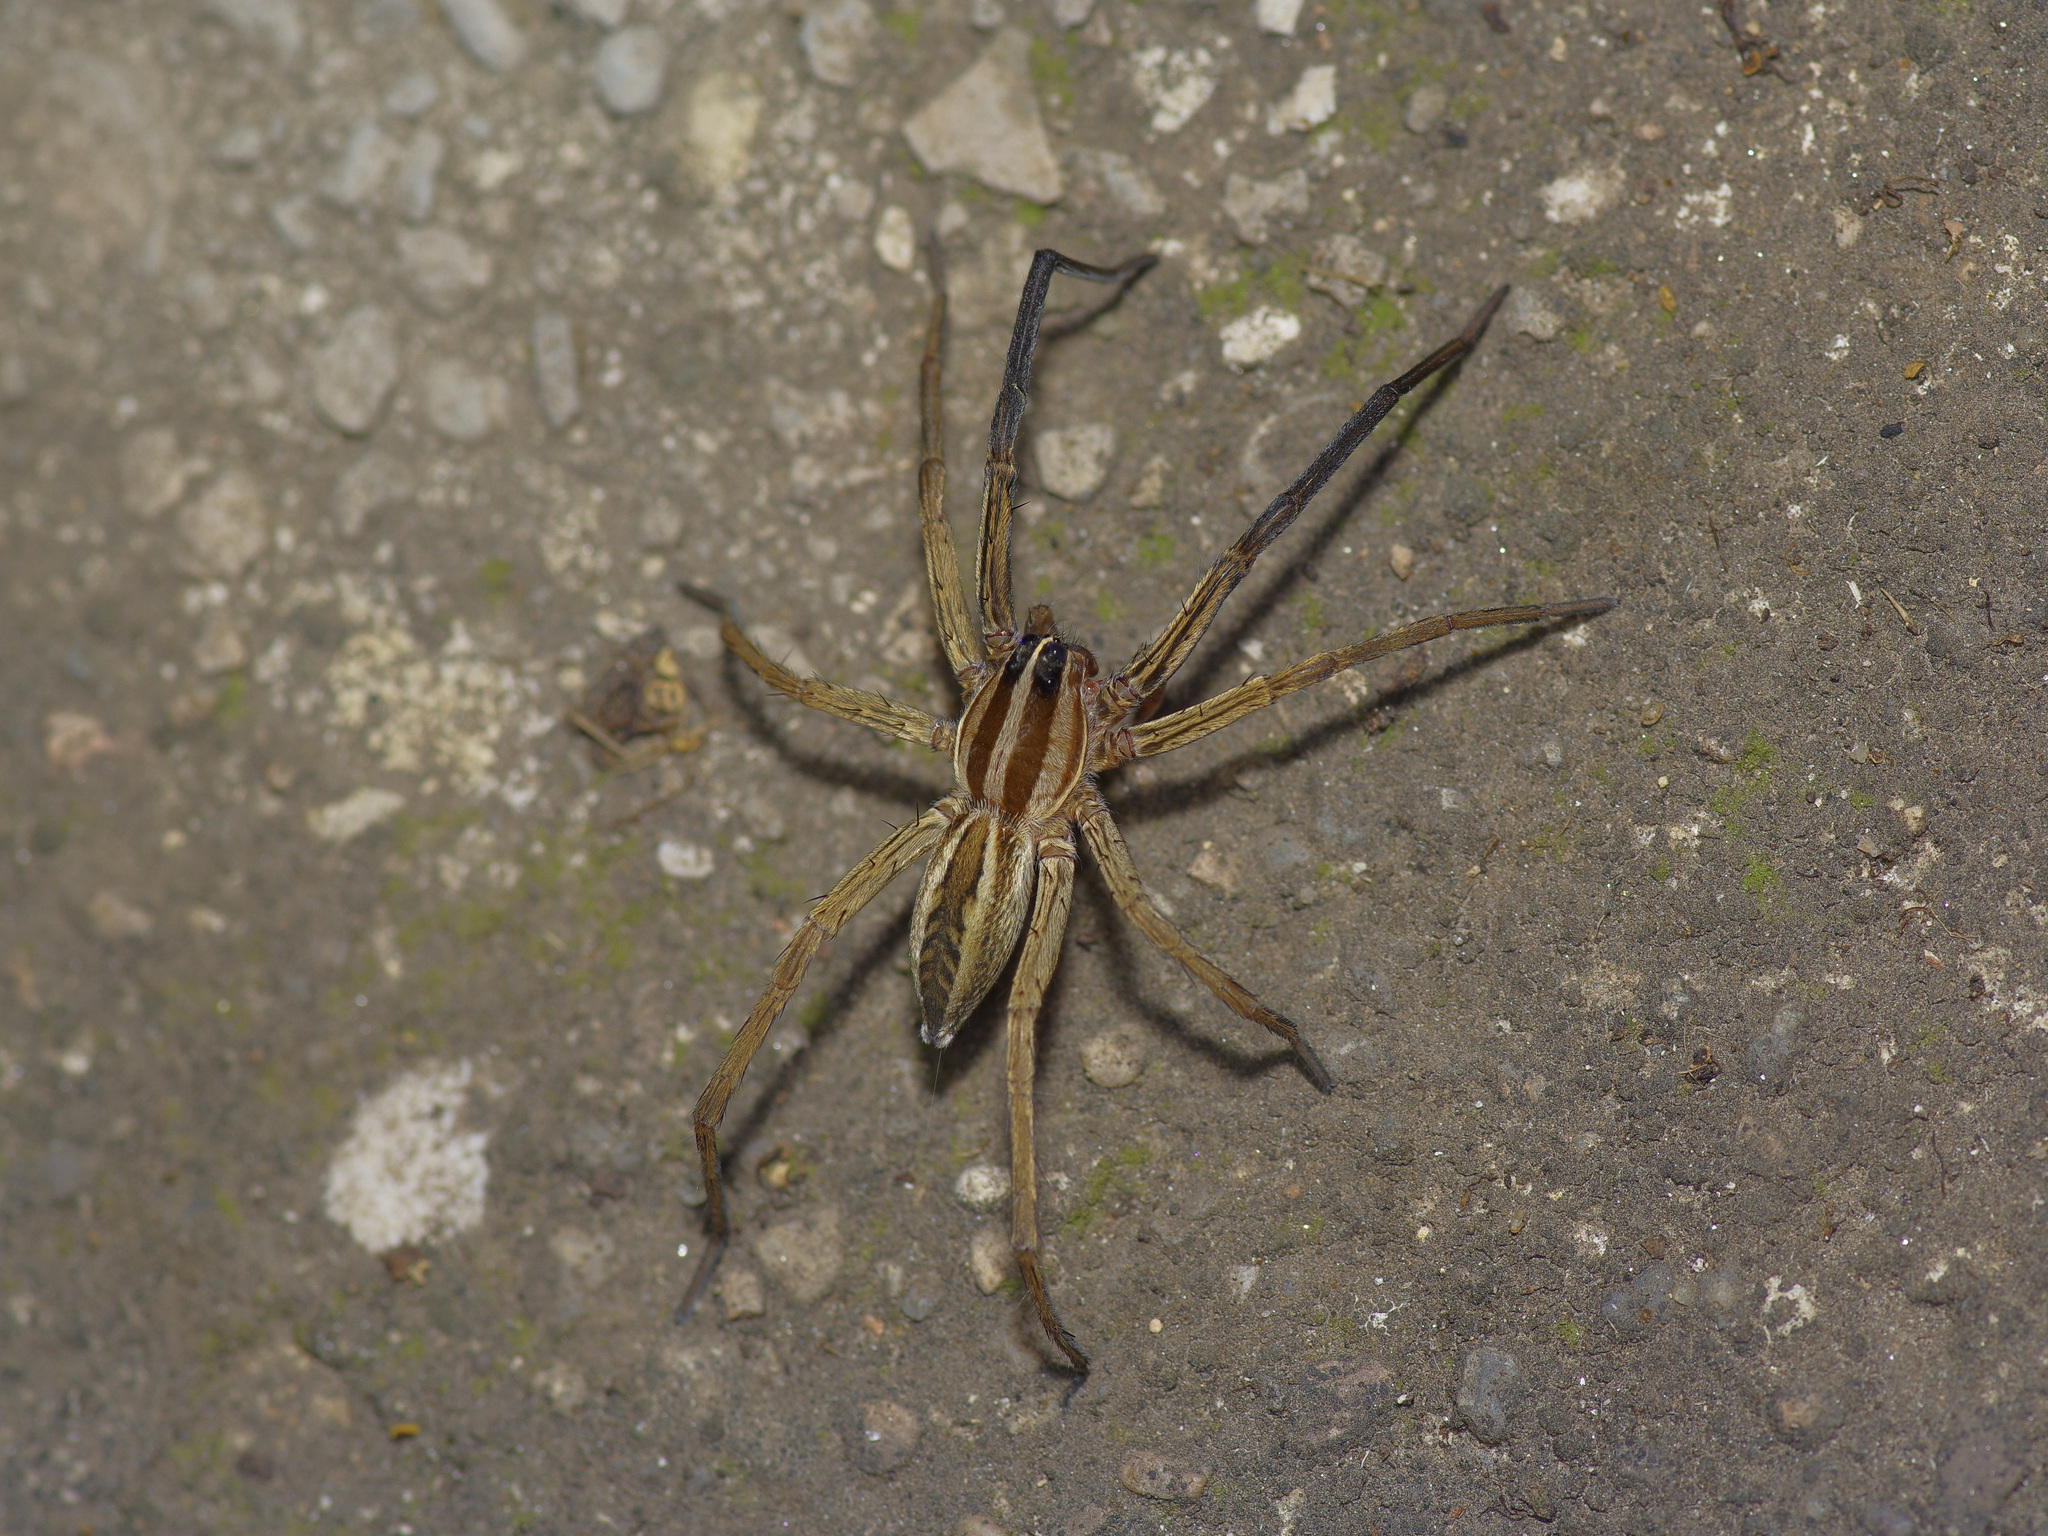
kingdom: Animalia
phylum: Arthropoda
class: Arachnida
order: Araneae
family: Lycosidae
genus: Rabidosa
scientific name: Rabidosa rabida
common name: Rabid wolf spider
